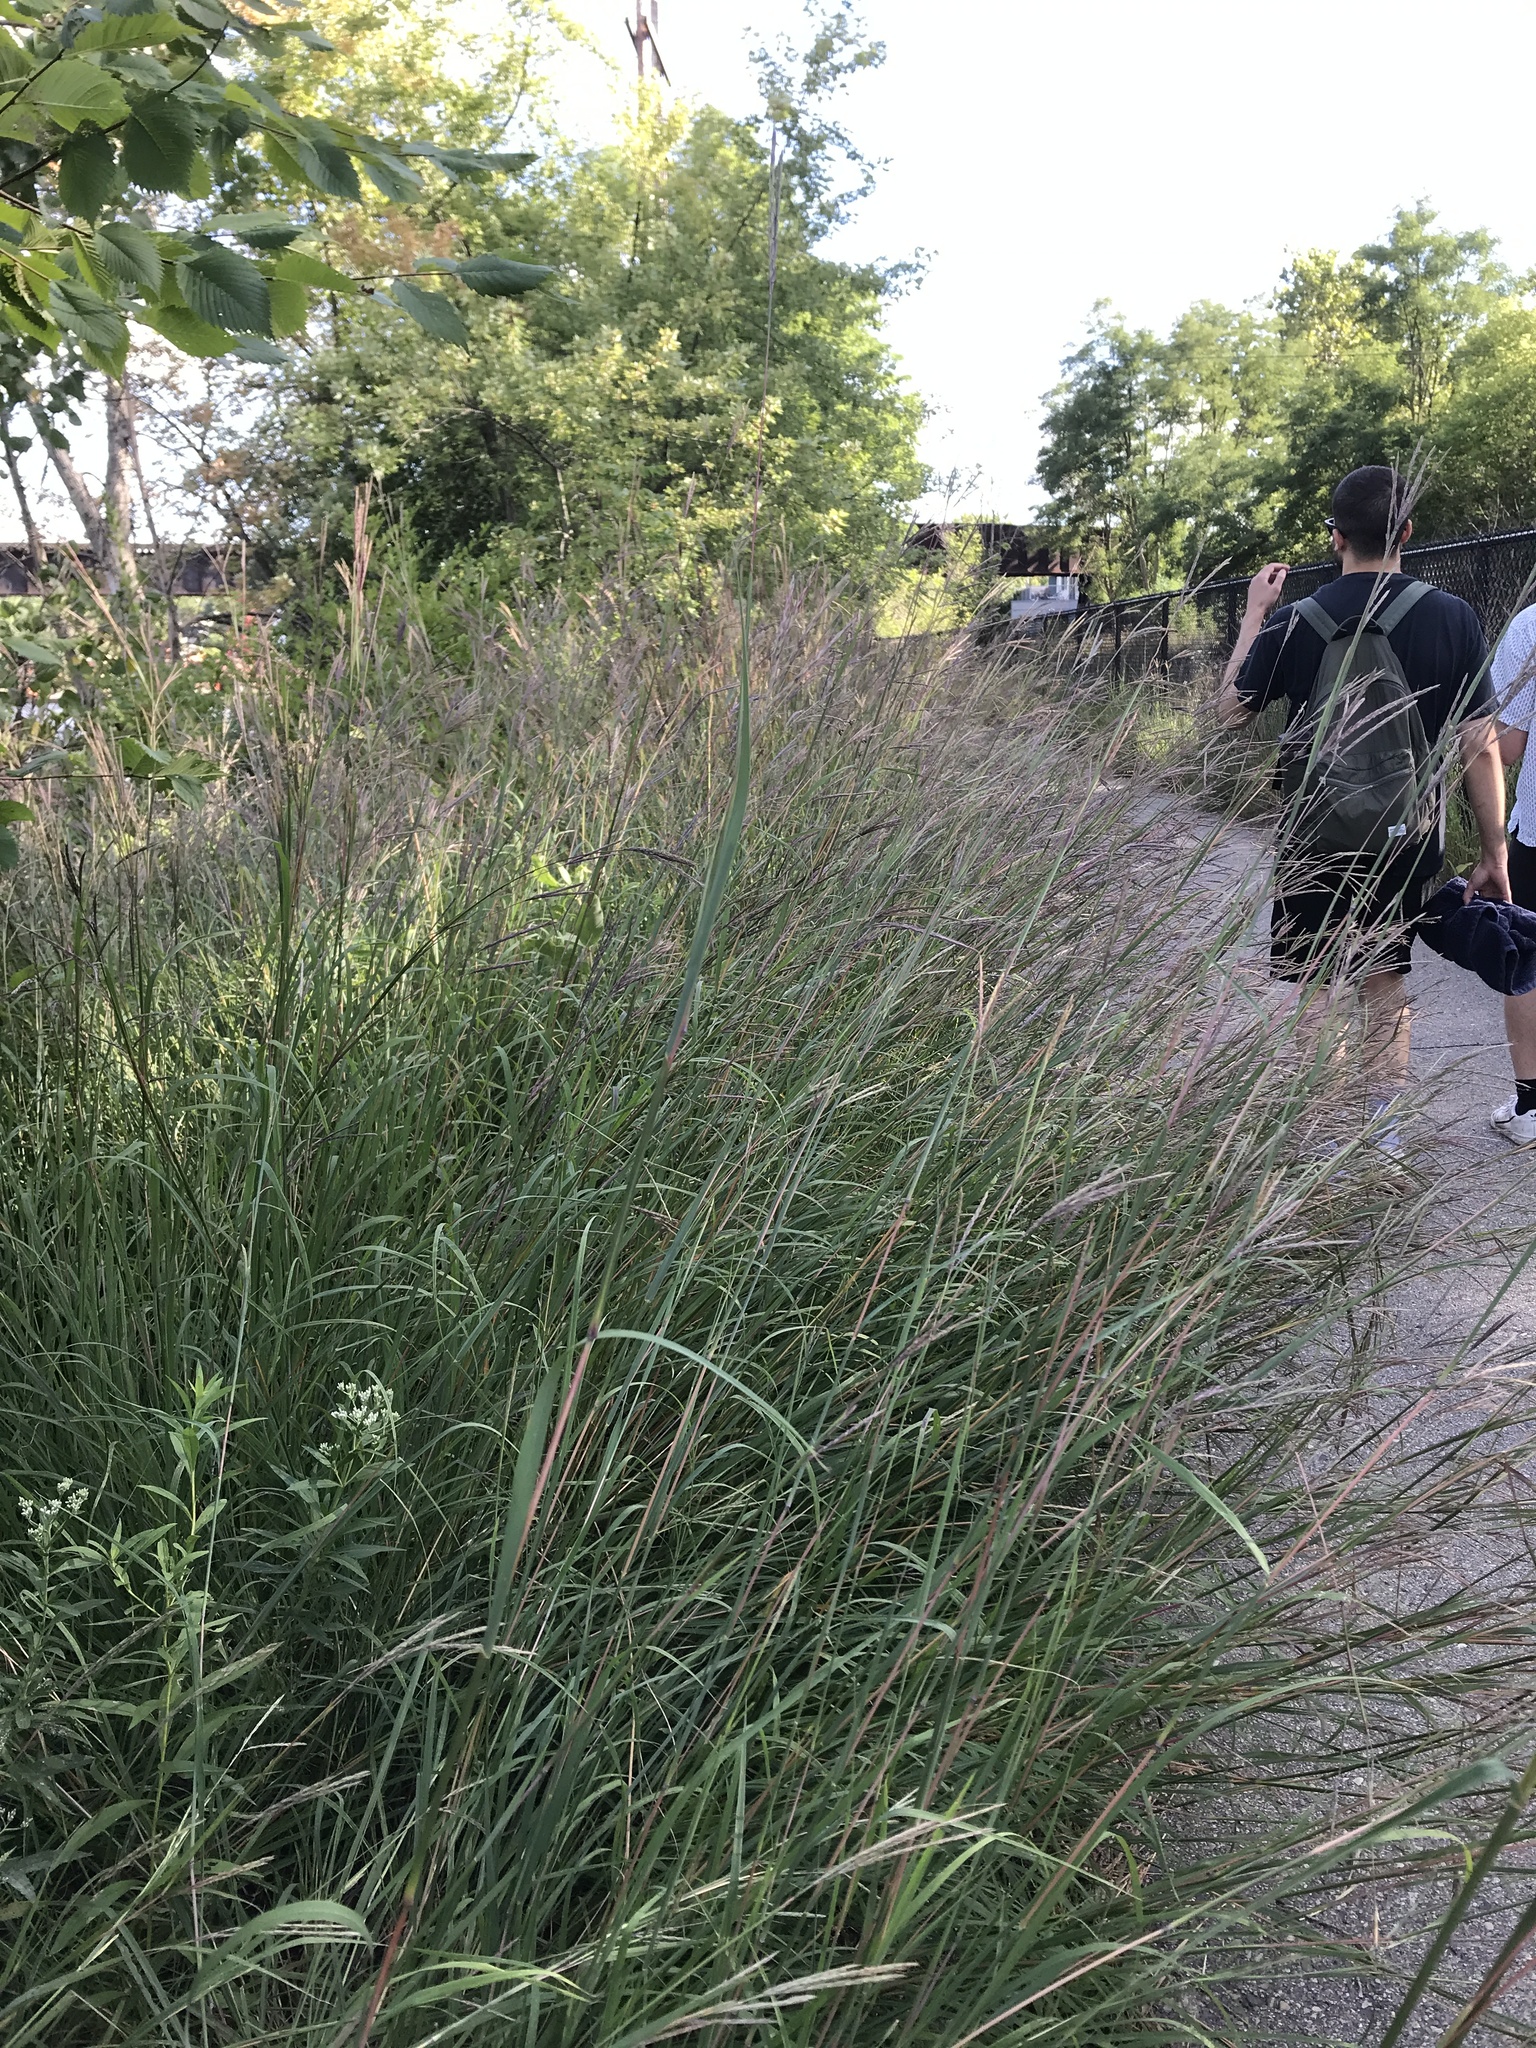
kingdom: Plantae
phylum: Tracheophyta
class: Liliopsida
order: Poales
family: Poaceae
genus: Andropogon
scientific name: Andropogon gerardi
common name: Big bluestem
